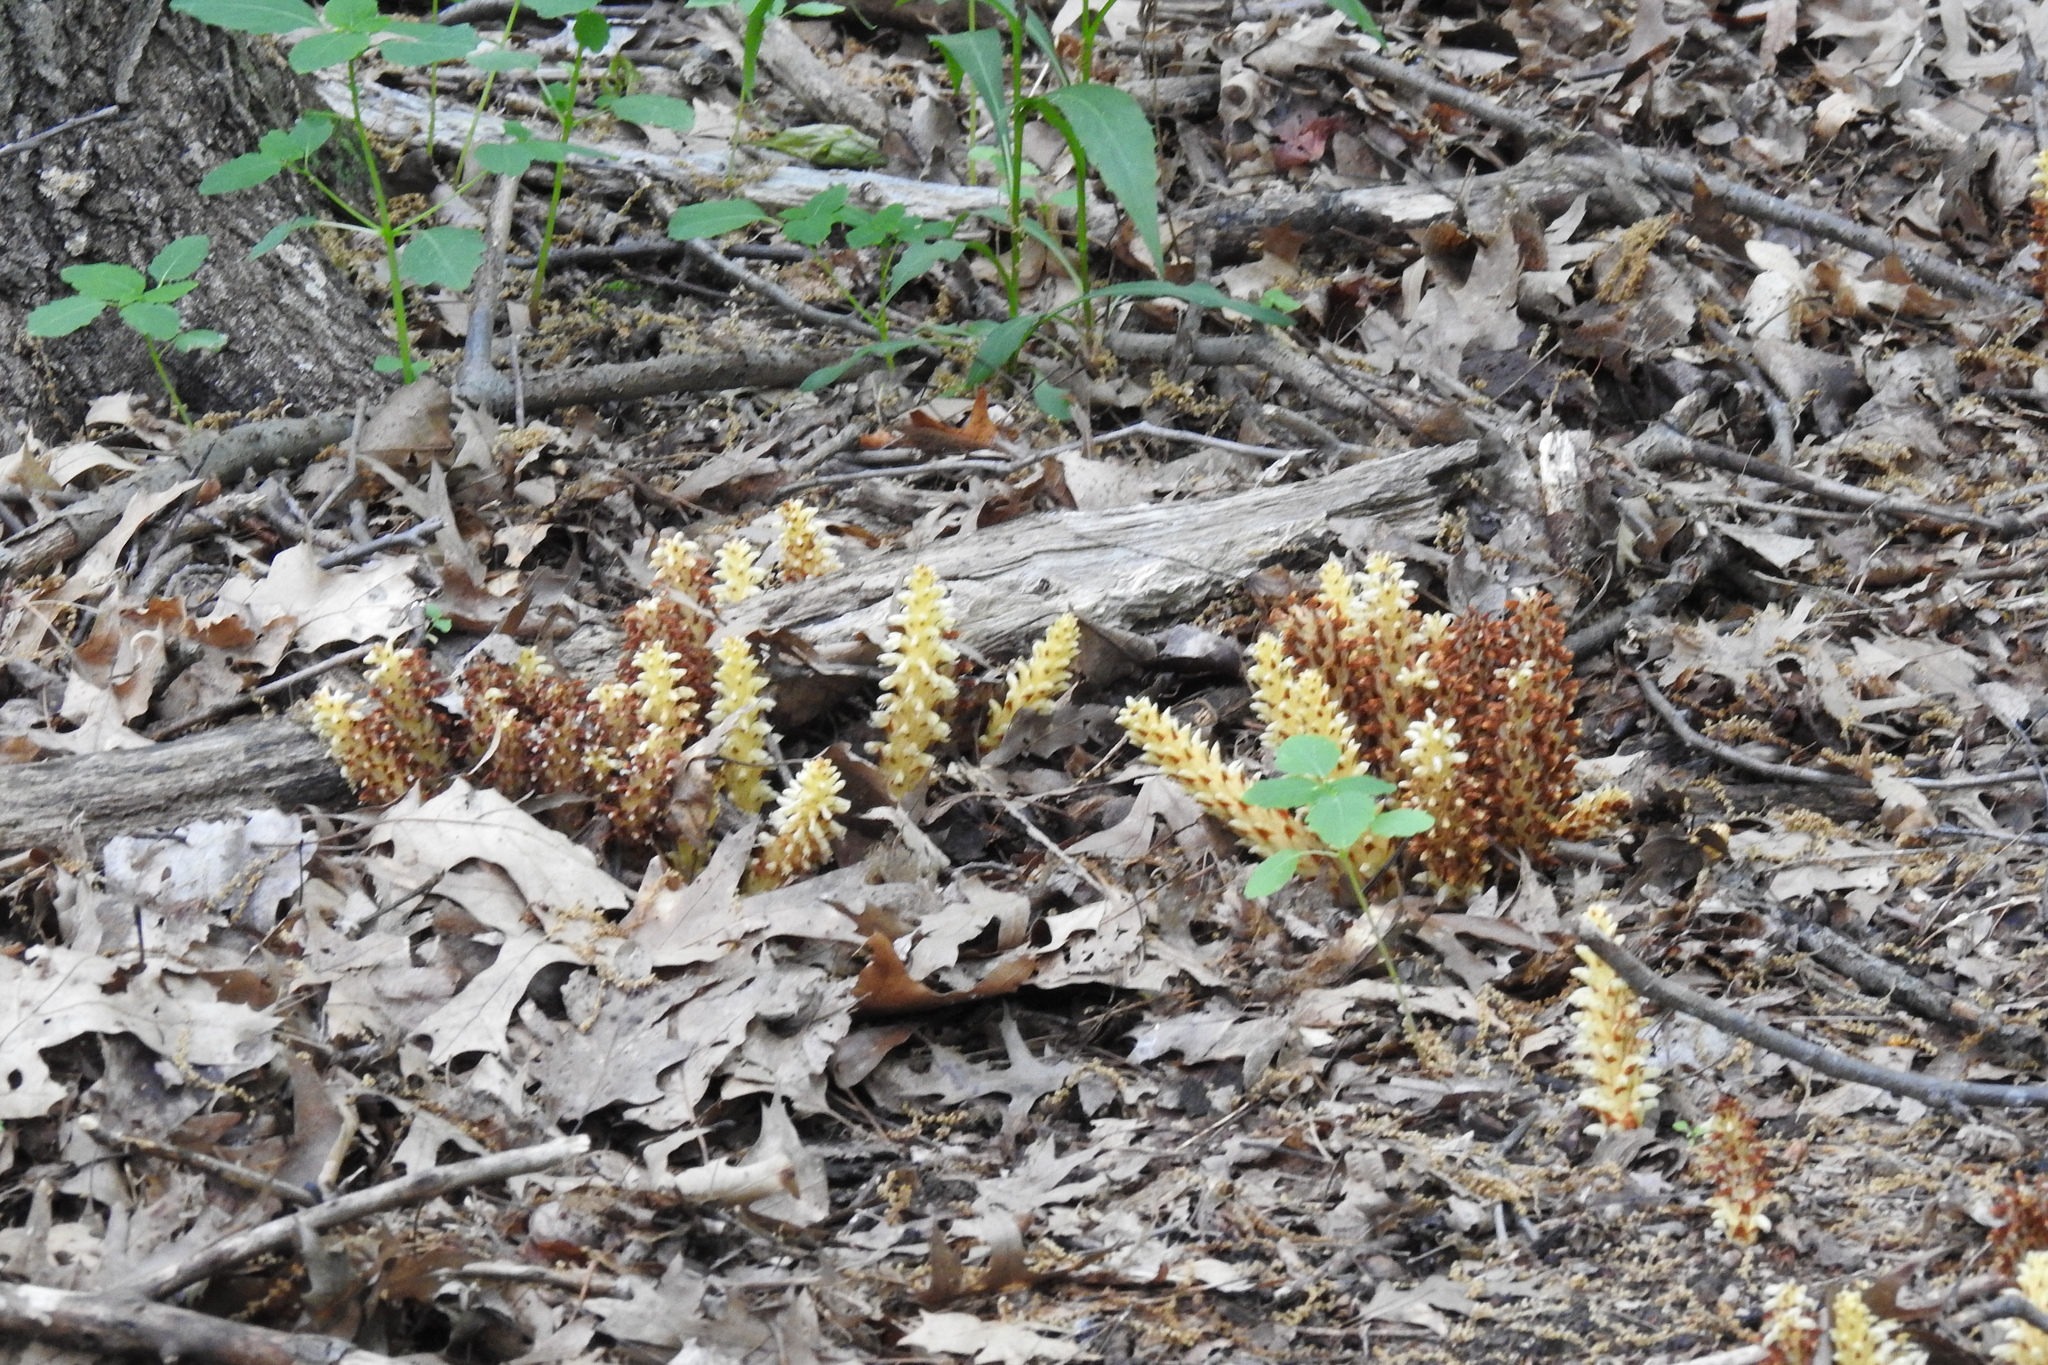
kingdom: Plantae
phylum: Tracheophyta
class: Magnoliopsida
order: Lamiales
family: Orobanchaceae
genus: Conopholis
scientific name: Conopholis americana
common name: American cancer-root
